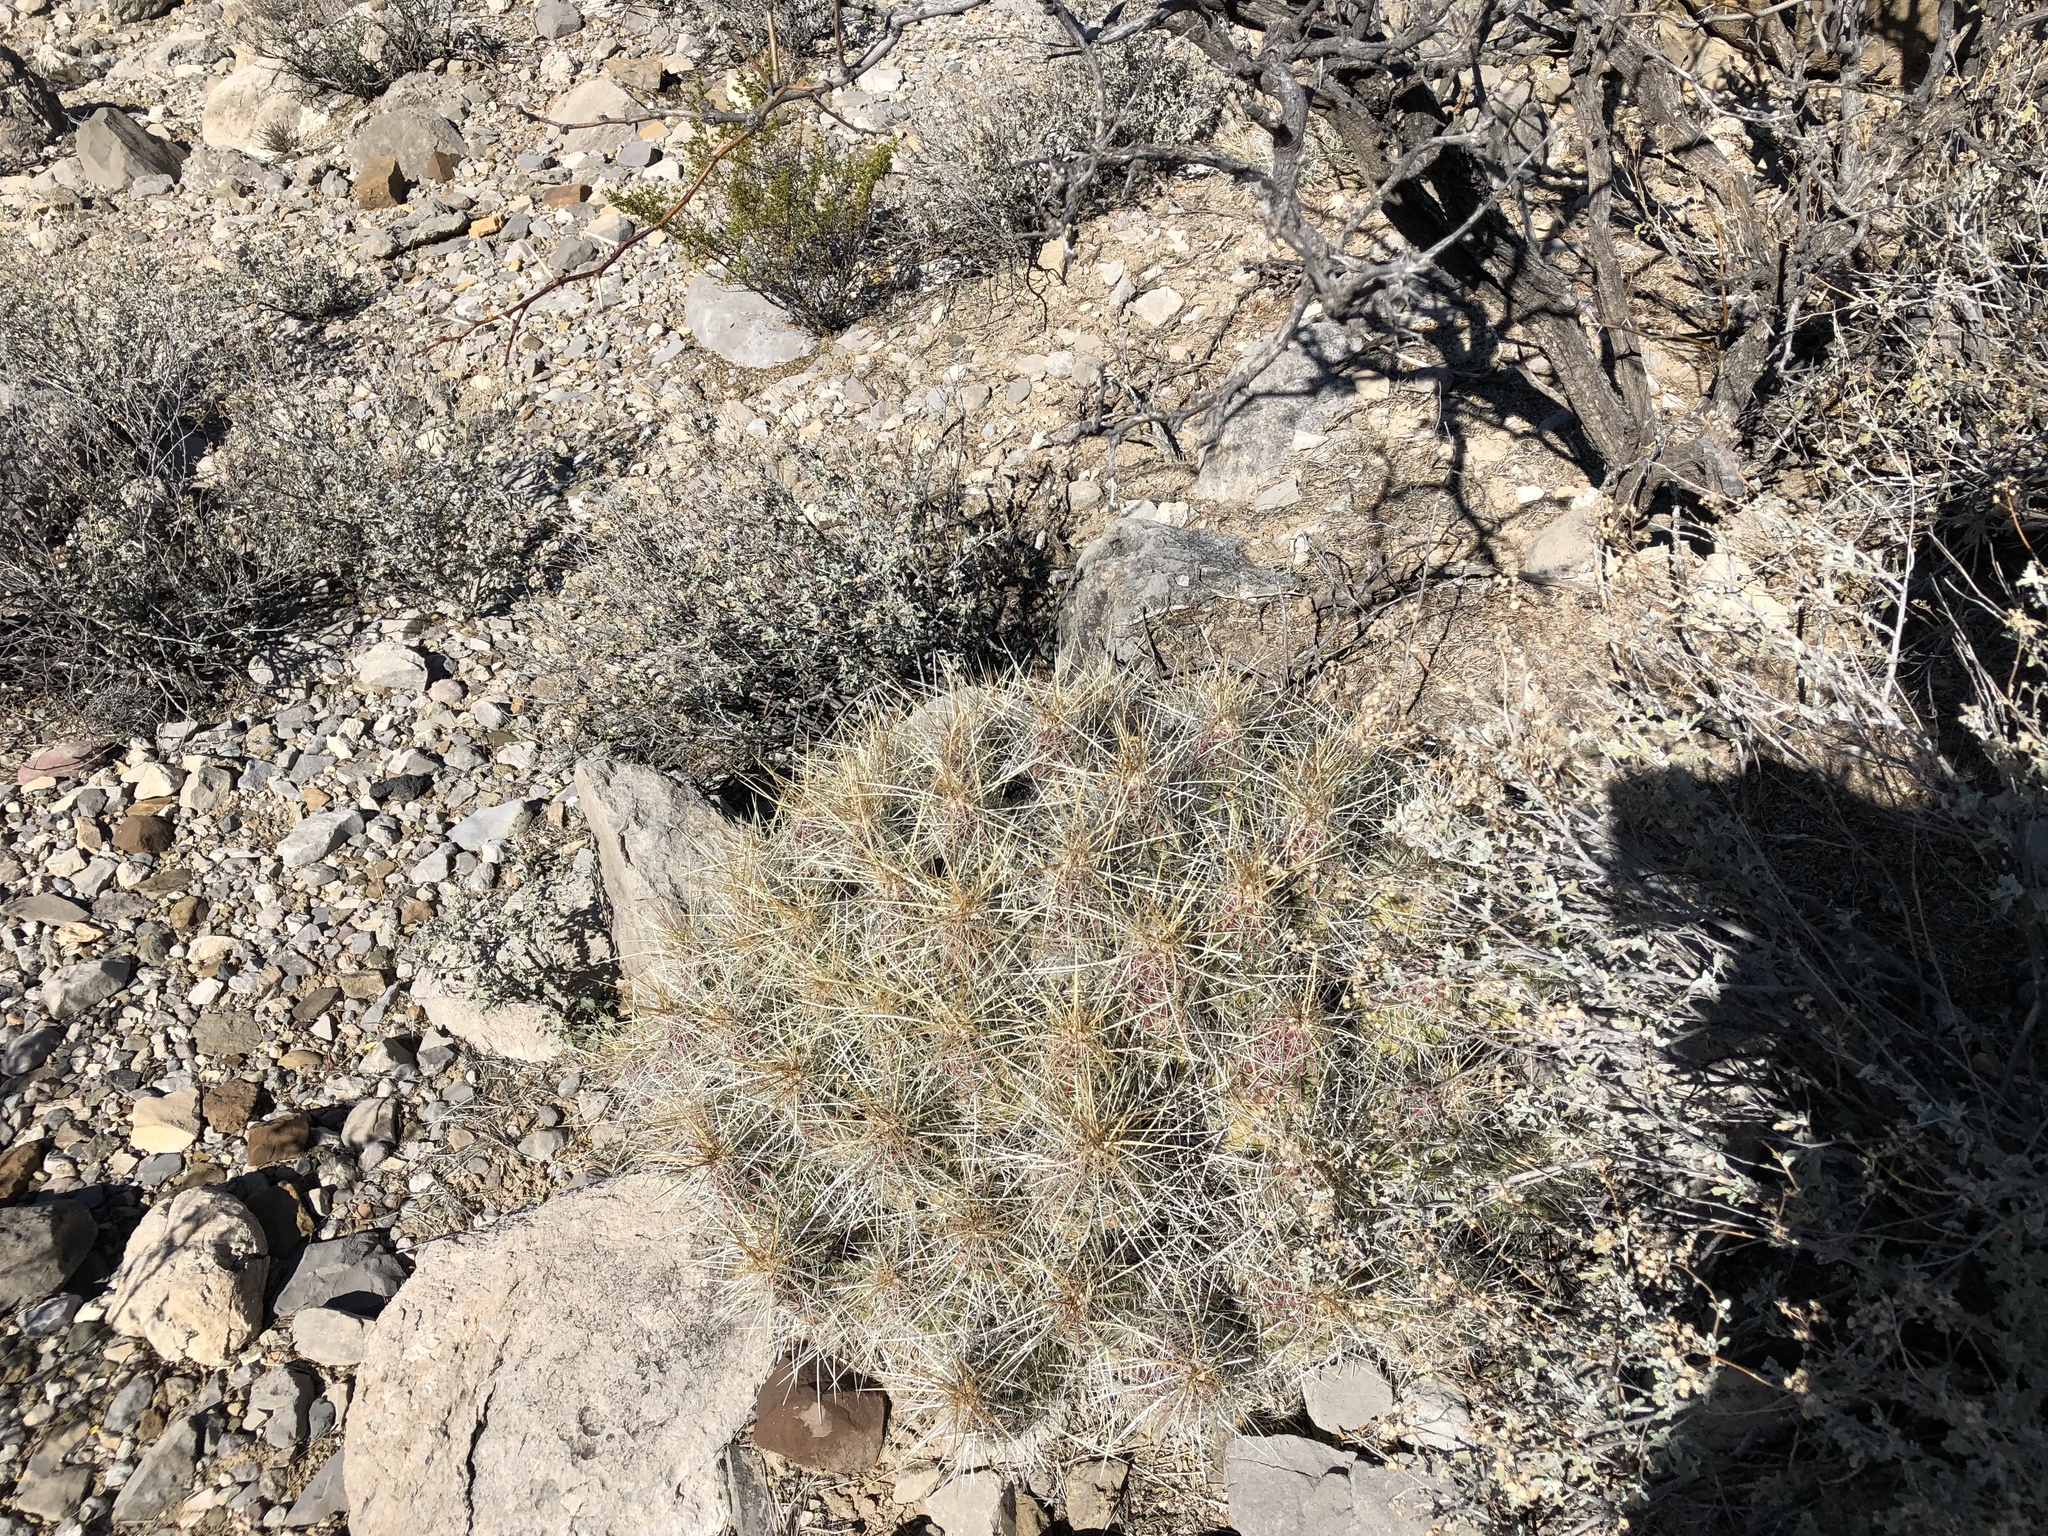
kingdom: Plantae
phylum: Tracheophyta
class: Magnoliopsida
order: Caryophyllales
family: Cactaceae
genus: Echinocereus
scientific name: Echinocereus stramineus
